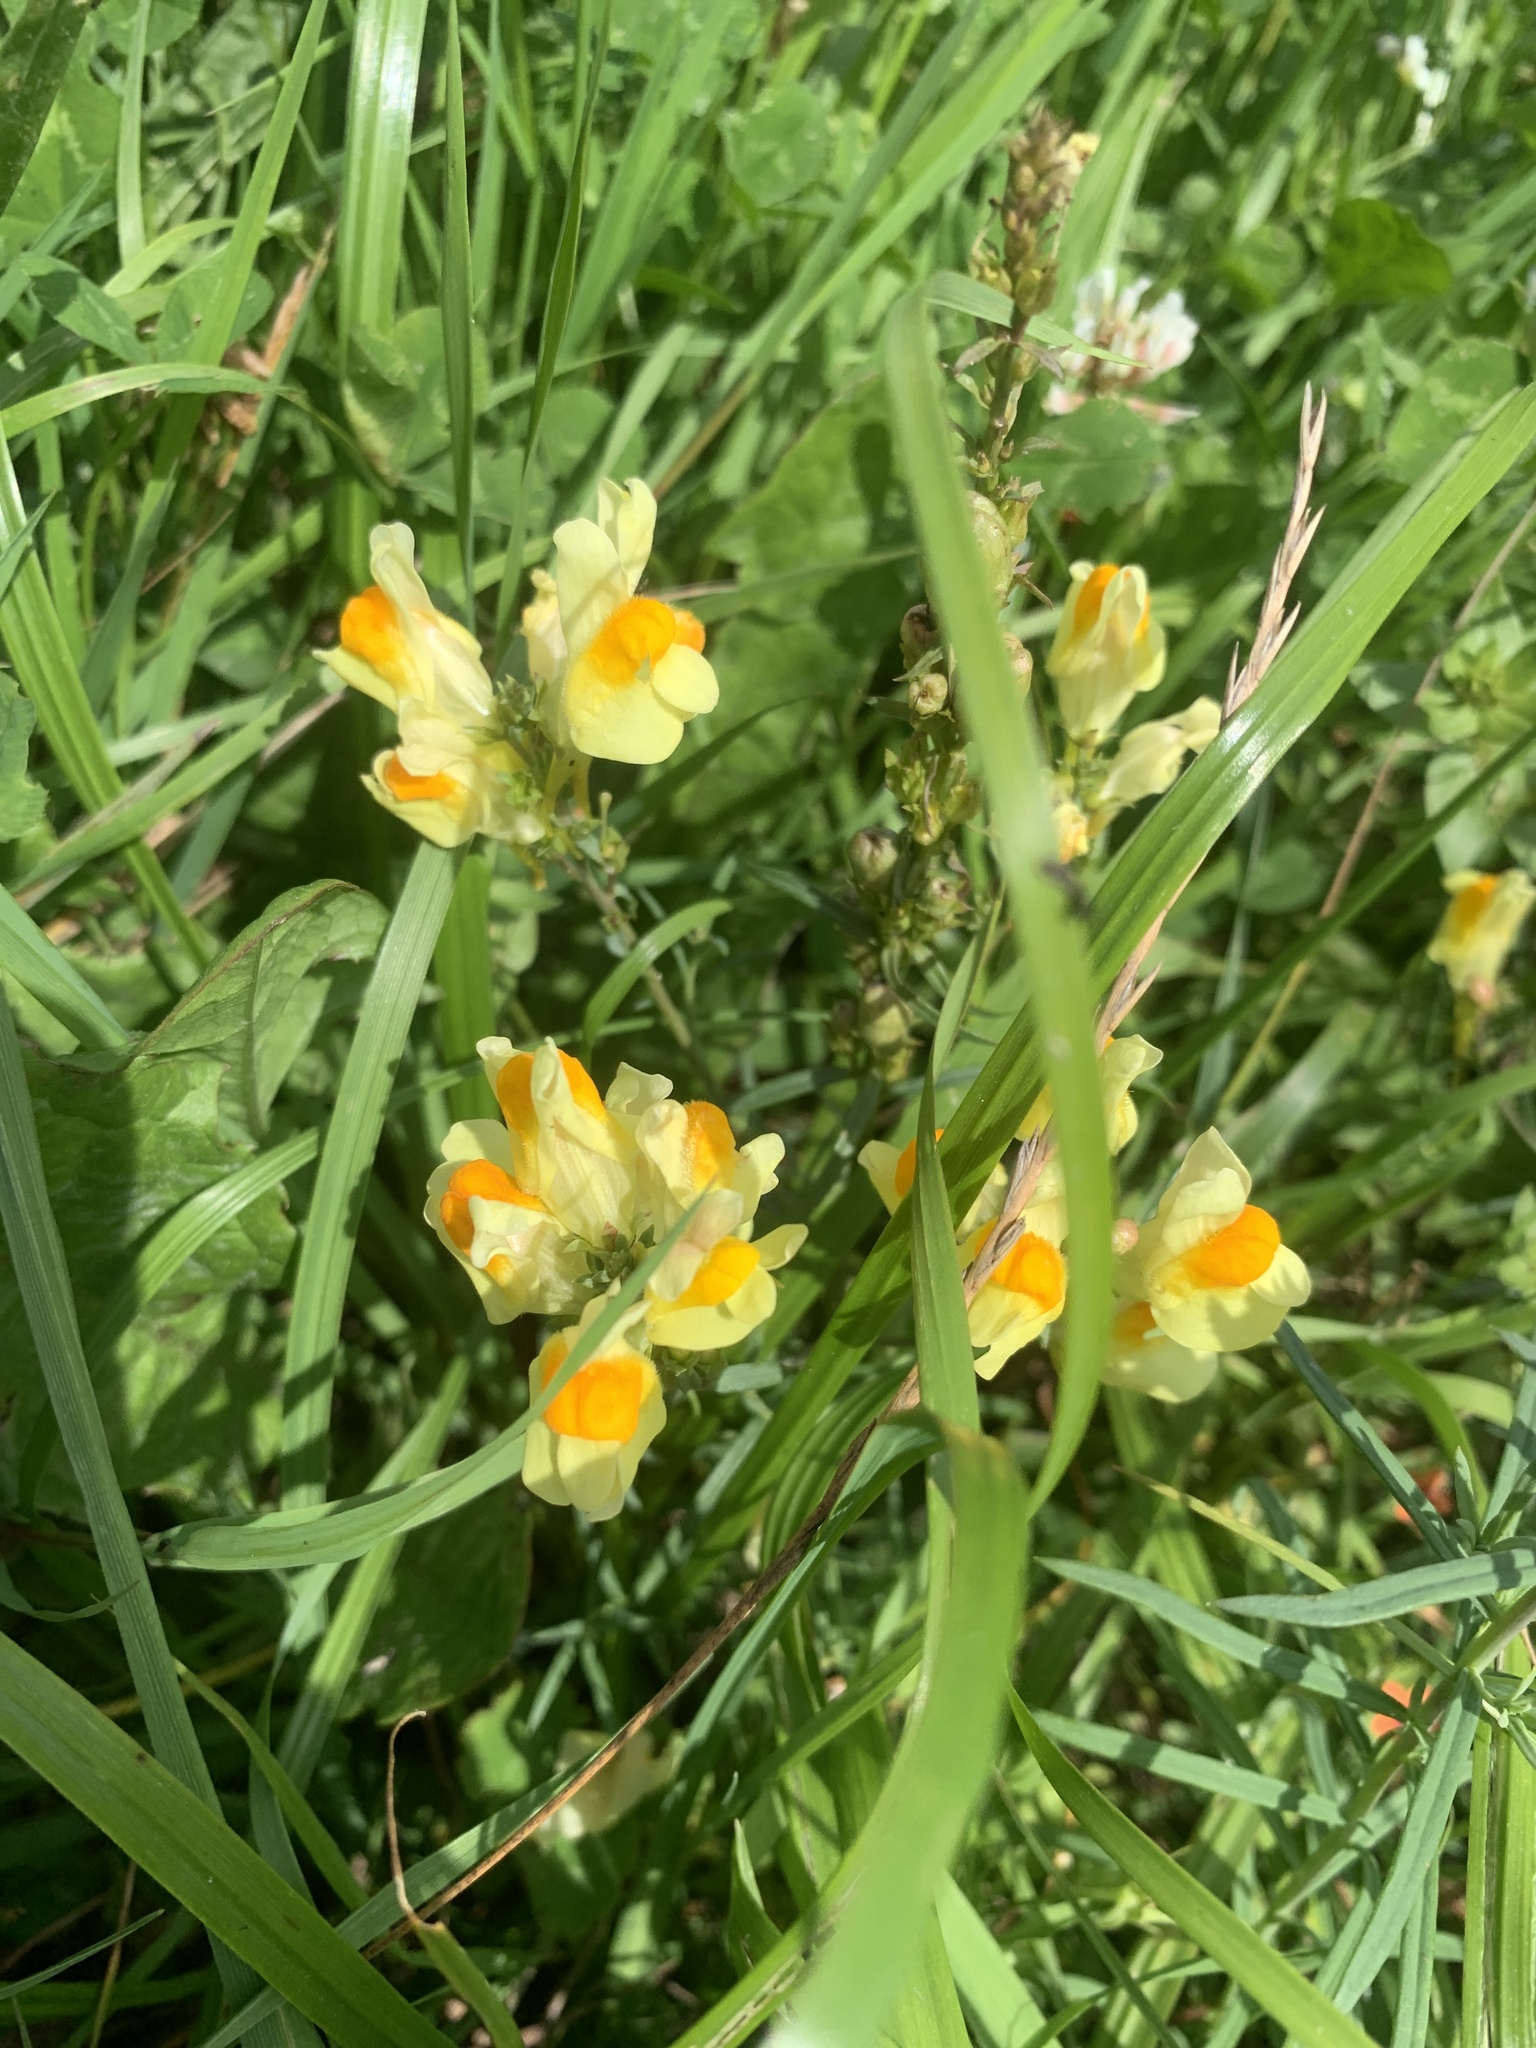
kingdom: Plantae
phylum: Tracheophyta
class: Magnoliopsida
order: Lamiales
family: Plantaginaceae
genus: Linaria
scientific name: Linaria vulgaris
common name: Butter and eggs
